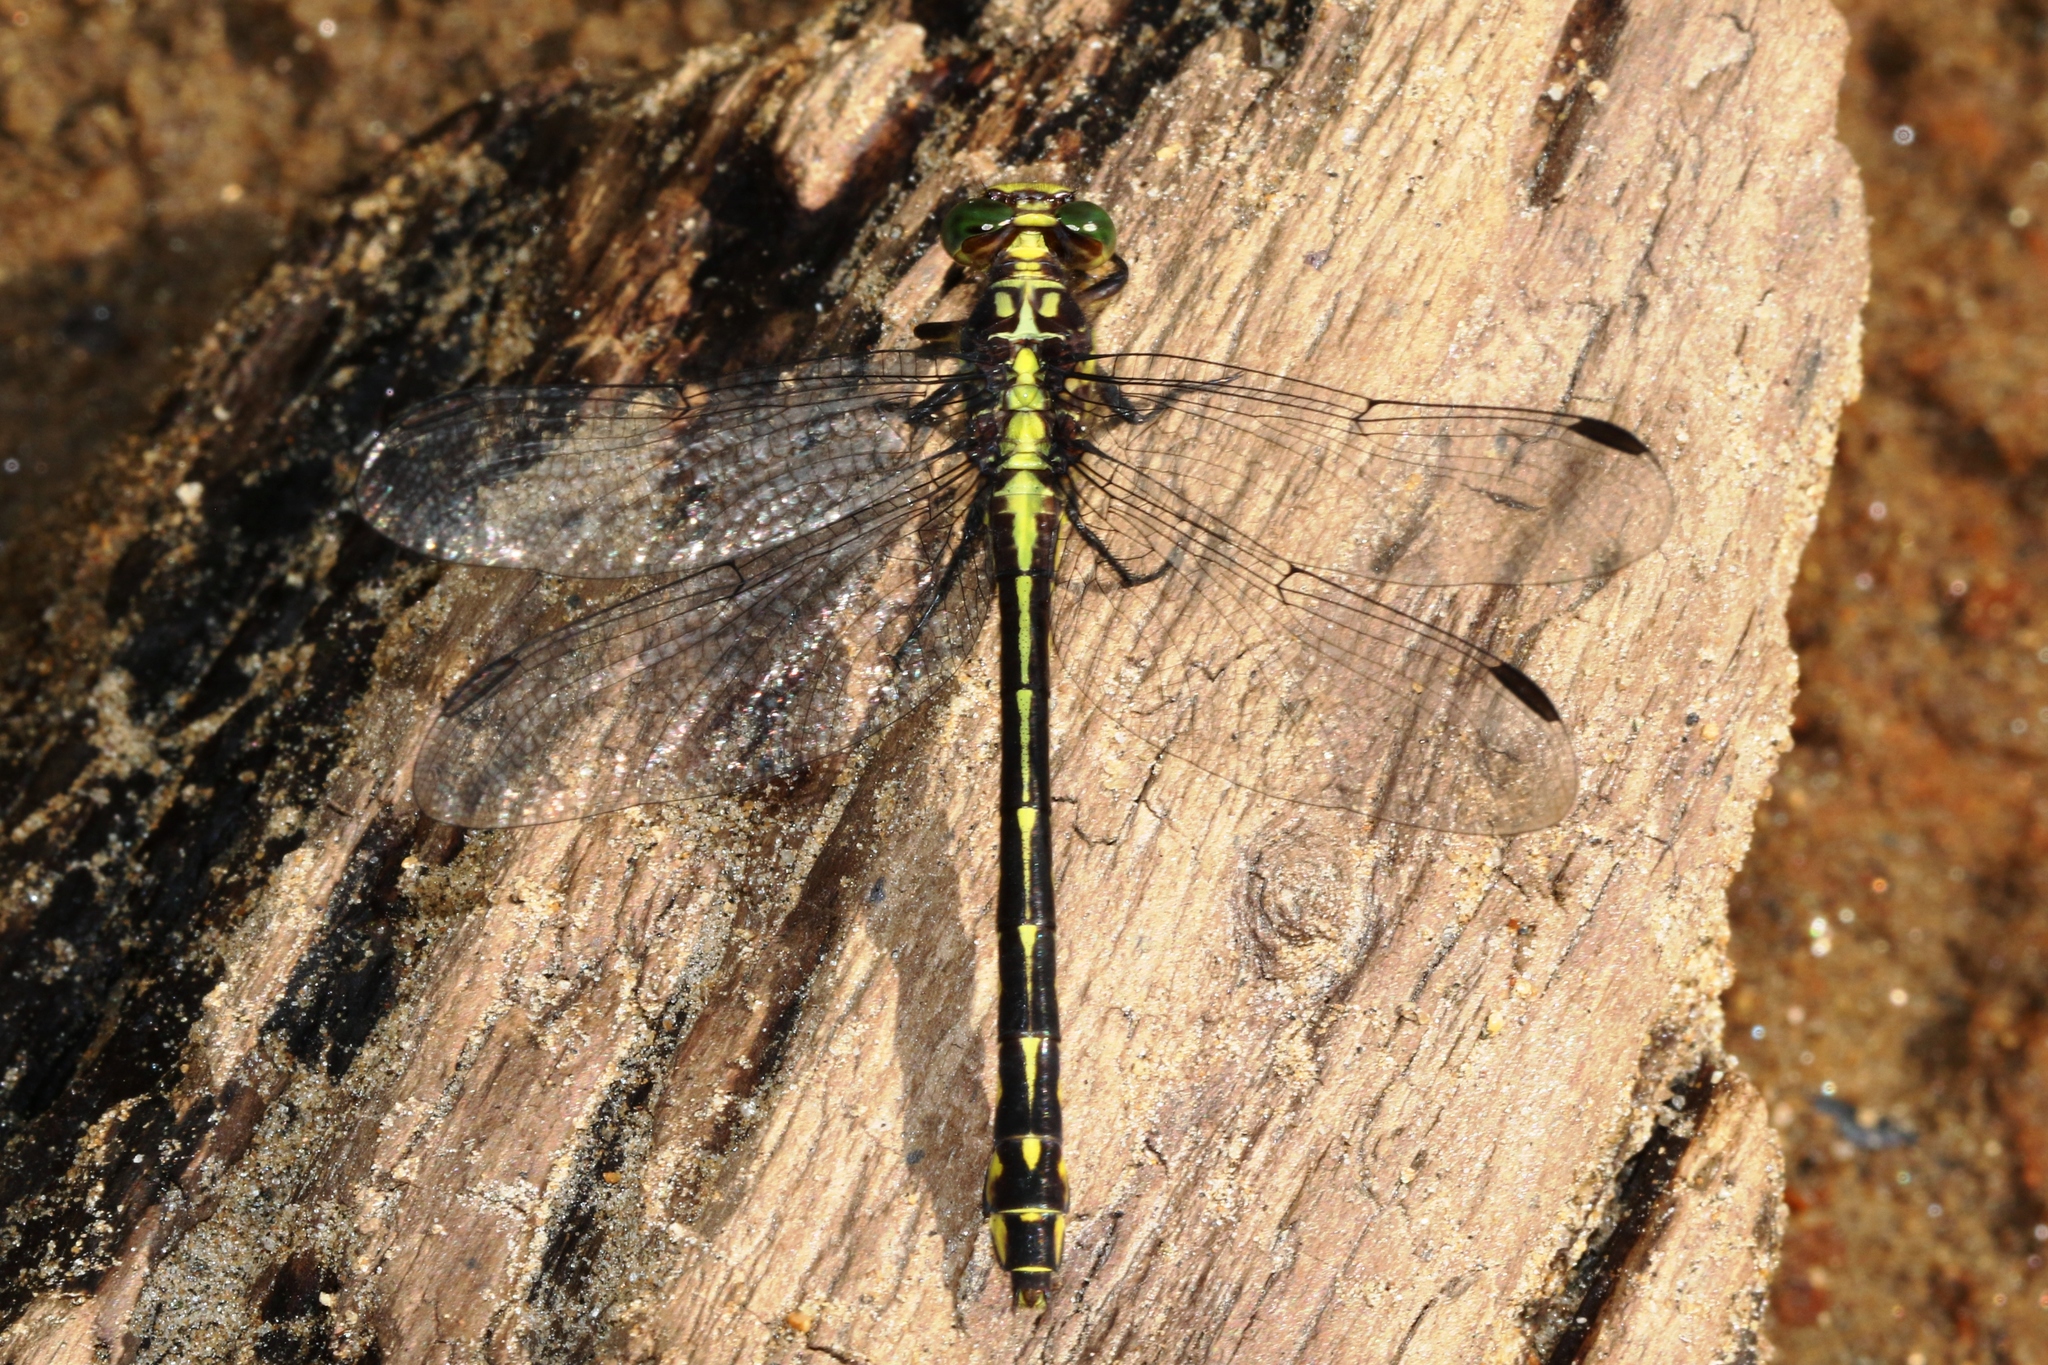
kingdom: Animalia
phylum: Arthropoda
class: Insecta
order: Odonata
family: Gomphidae
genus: Stylurus
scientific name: Stylurus amnicola
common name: Riverine clubtail
